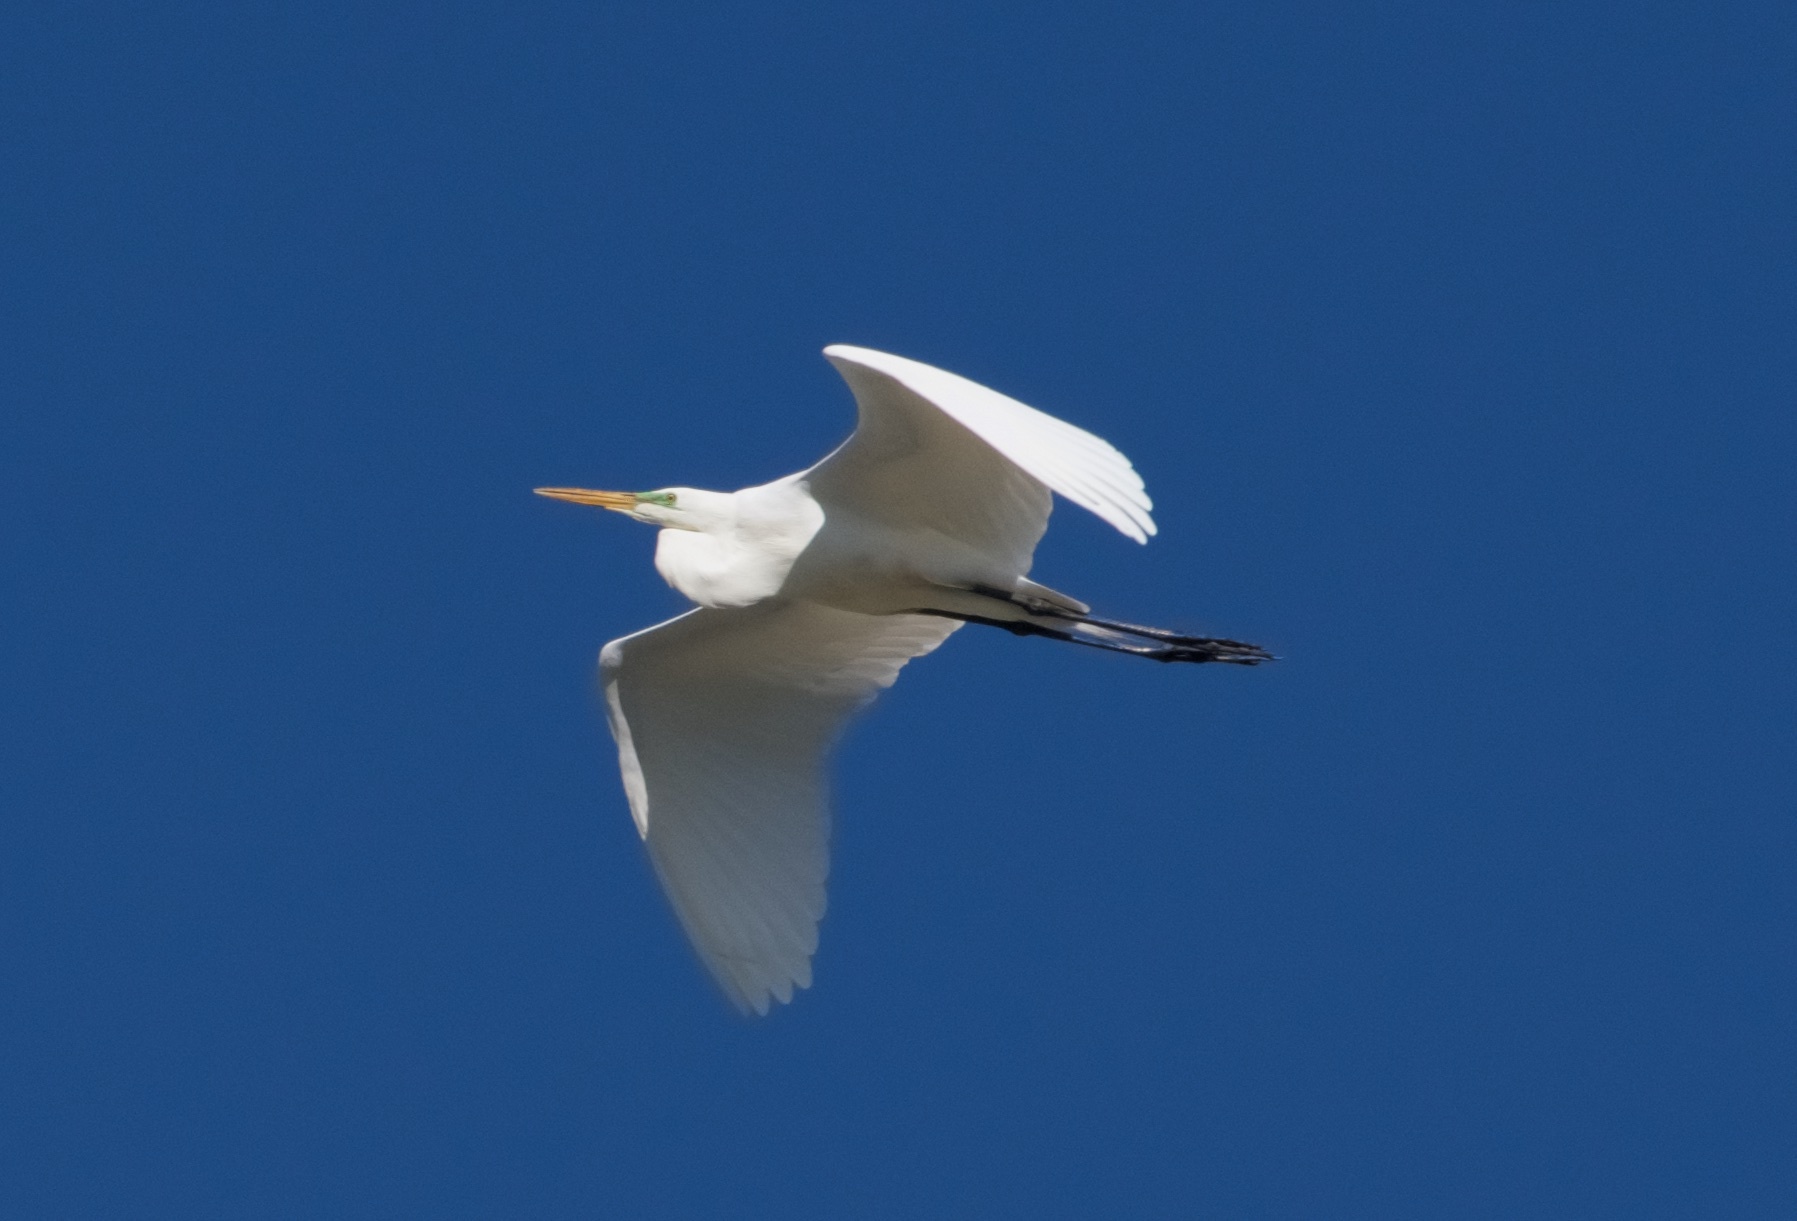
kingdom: Animalia
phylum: Chordata
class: Aves
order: Pelecaniformes
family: Ardeidae
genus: Ardea
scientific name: Ardea alba
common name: Great egret
